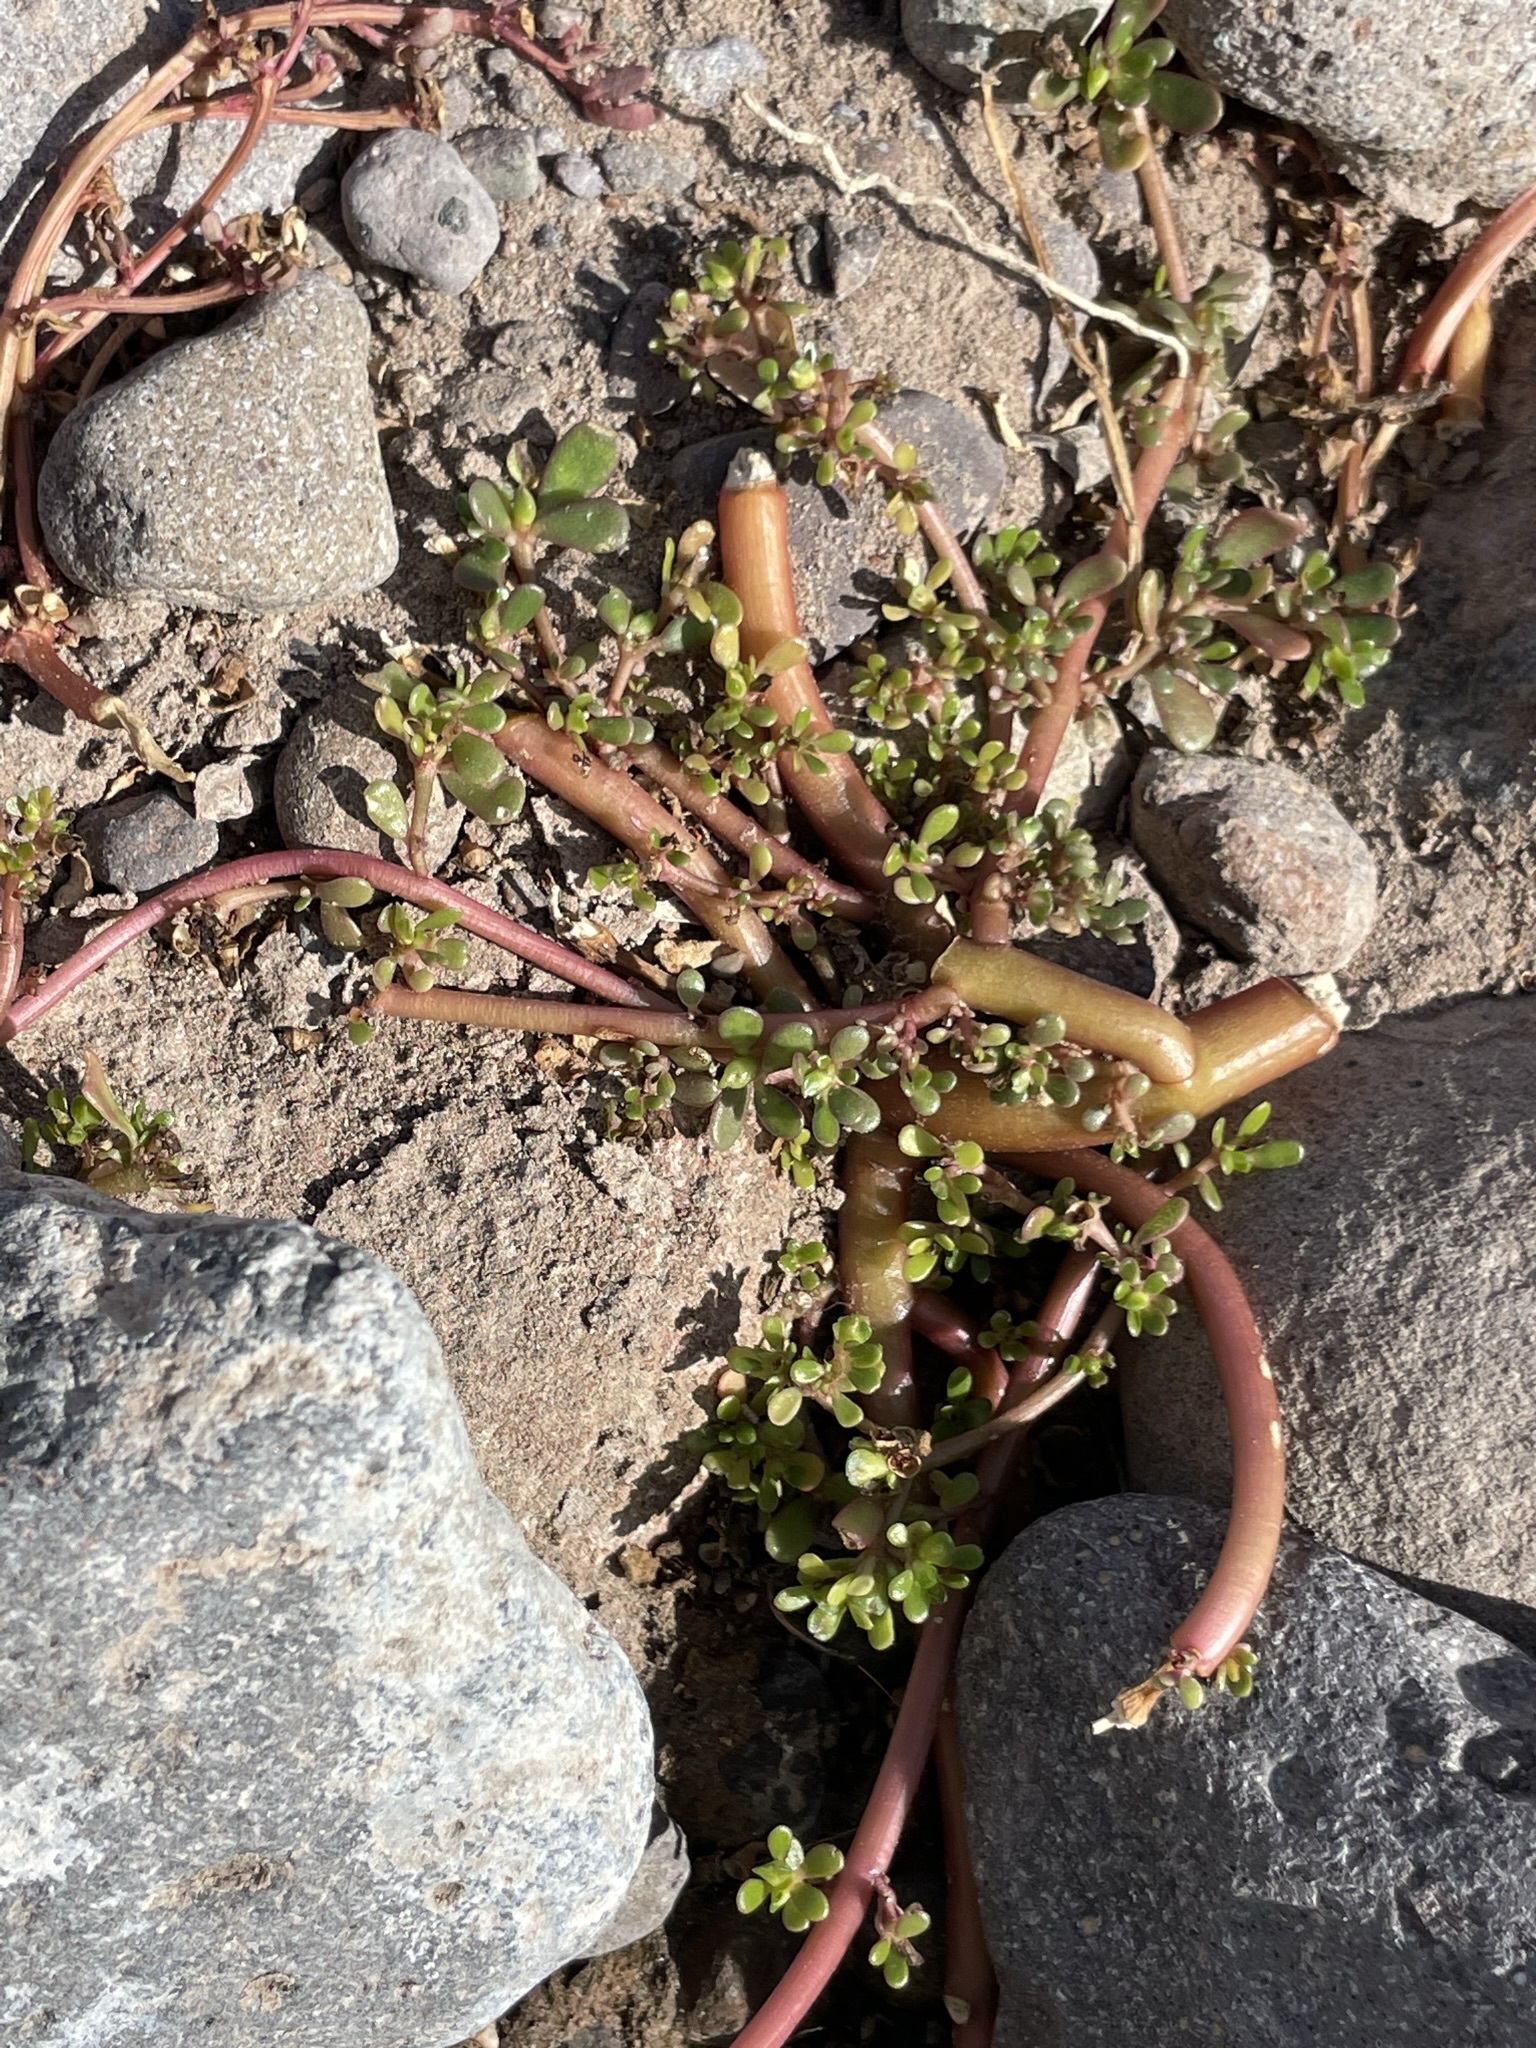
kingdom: Plantae
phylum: Tracheophyta
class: Magnoliopsida
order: Caryophyllales
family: Portulacaceae
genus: Portulaca
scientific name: Portulaca oleracea
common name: Common purslane
